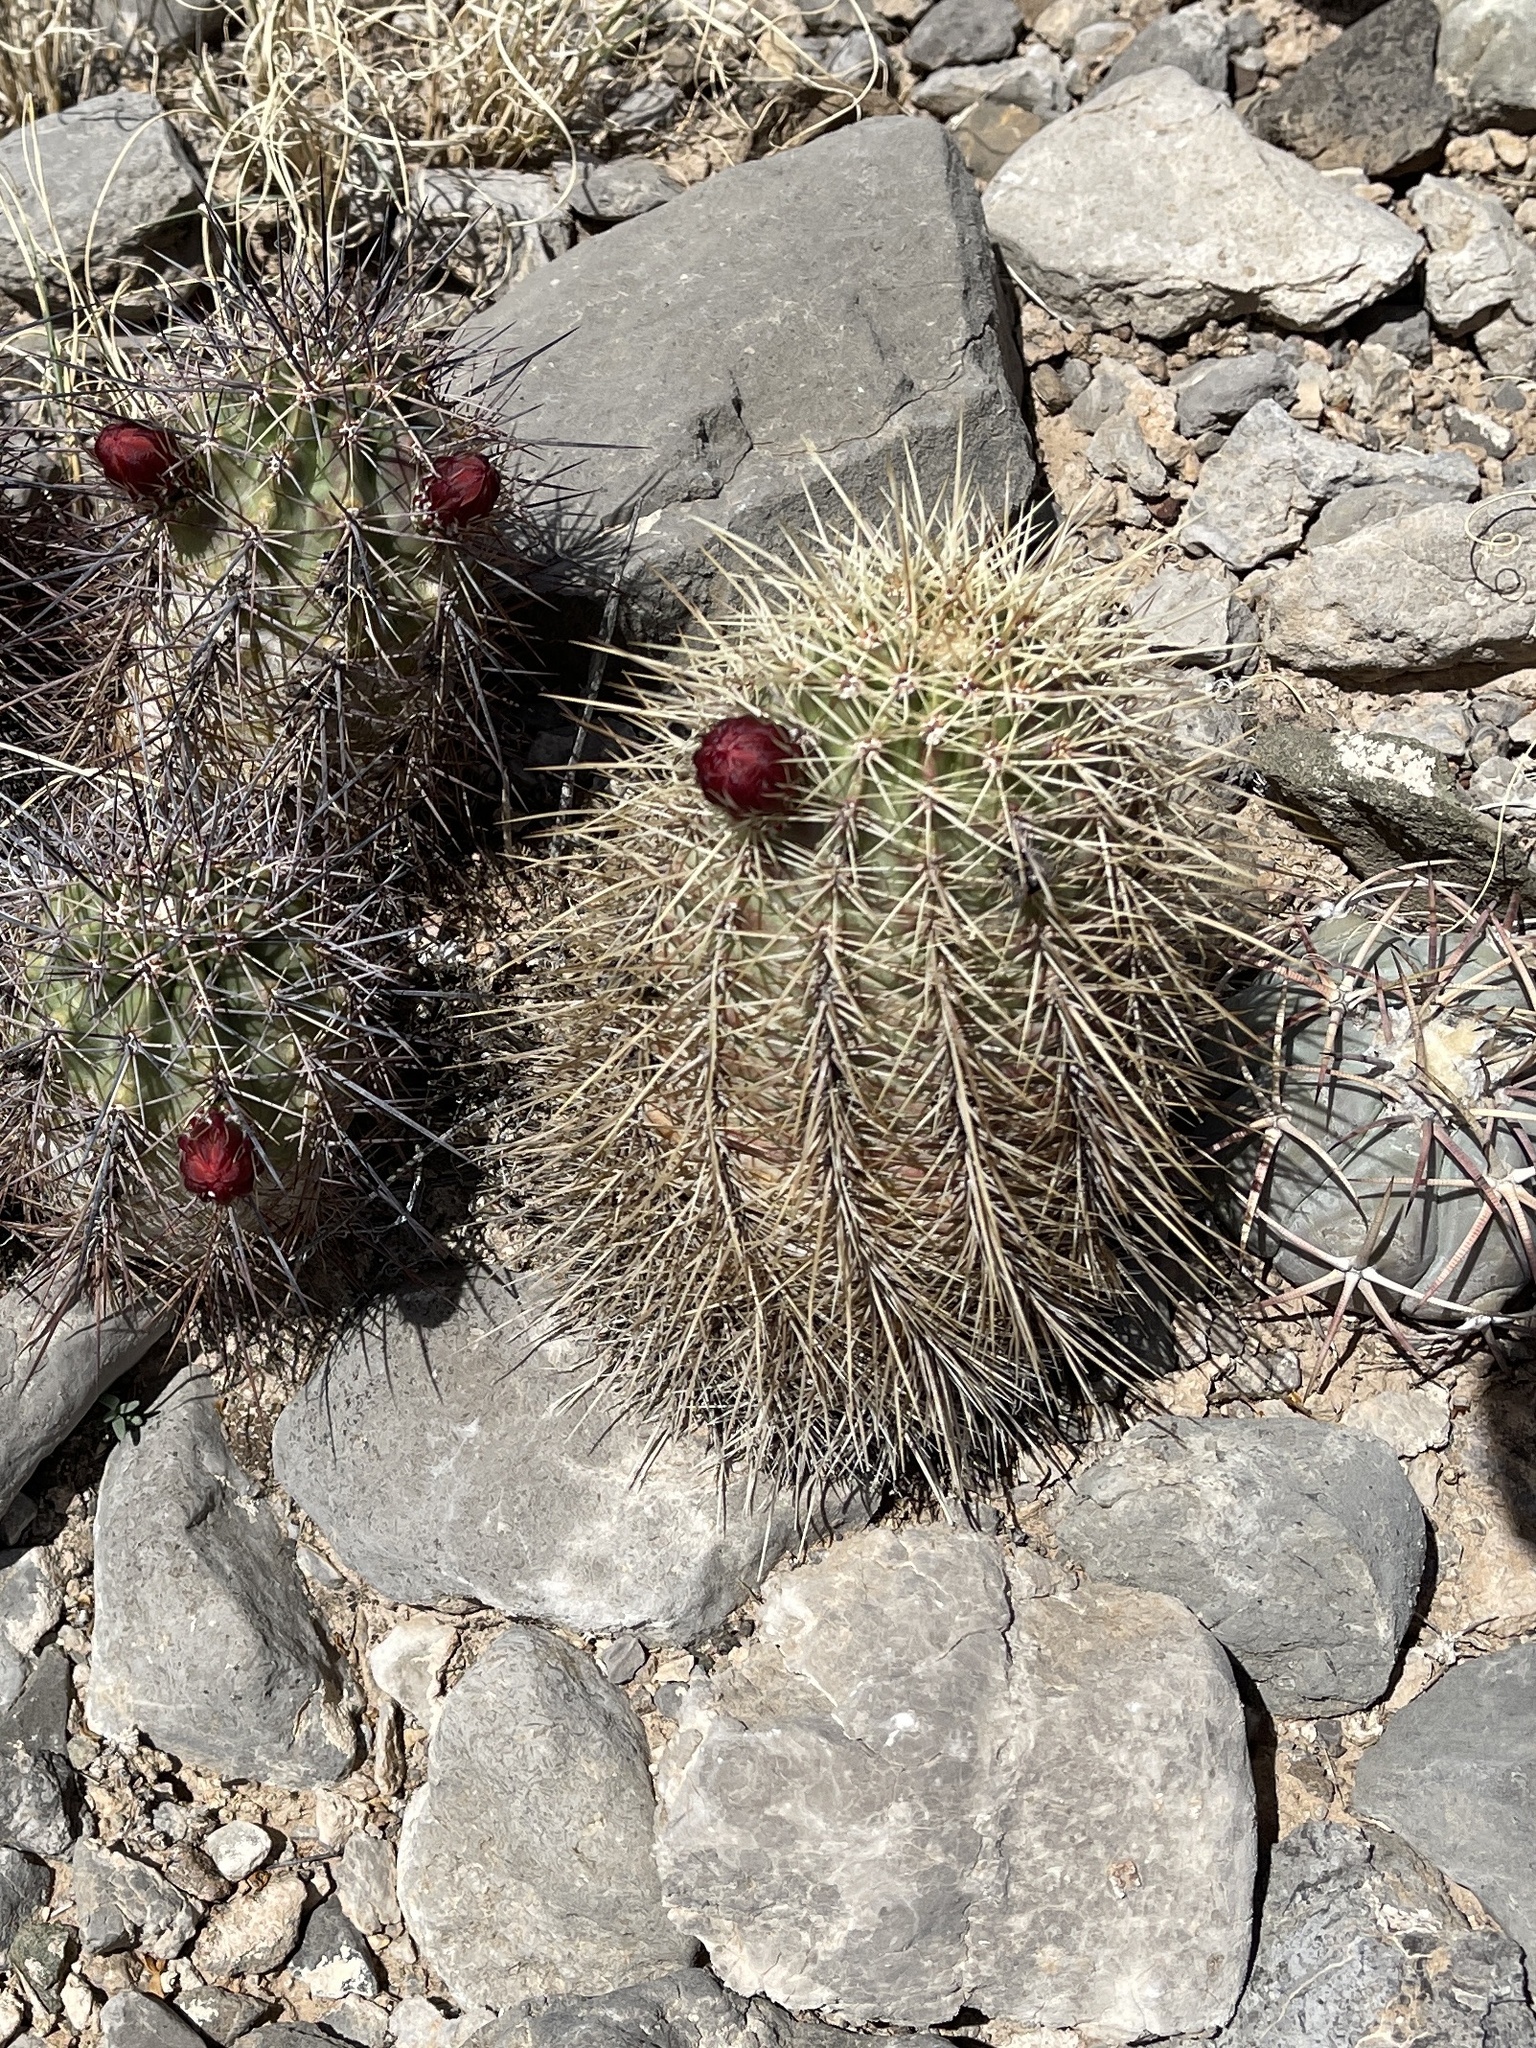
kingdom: Plantae
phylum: Tracheophyta
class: Magnoliopsida
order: Caryophyllales
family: Cactaceae
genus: Echinocereus
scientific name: Echinocereus coccineus
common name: Scarlet hedgehog cactus
